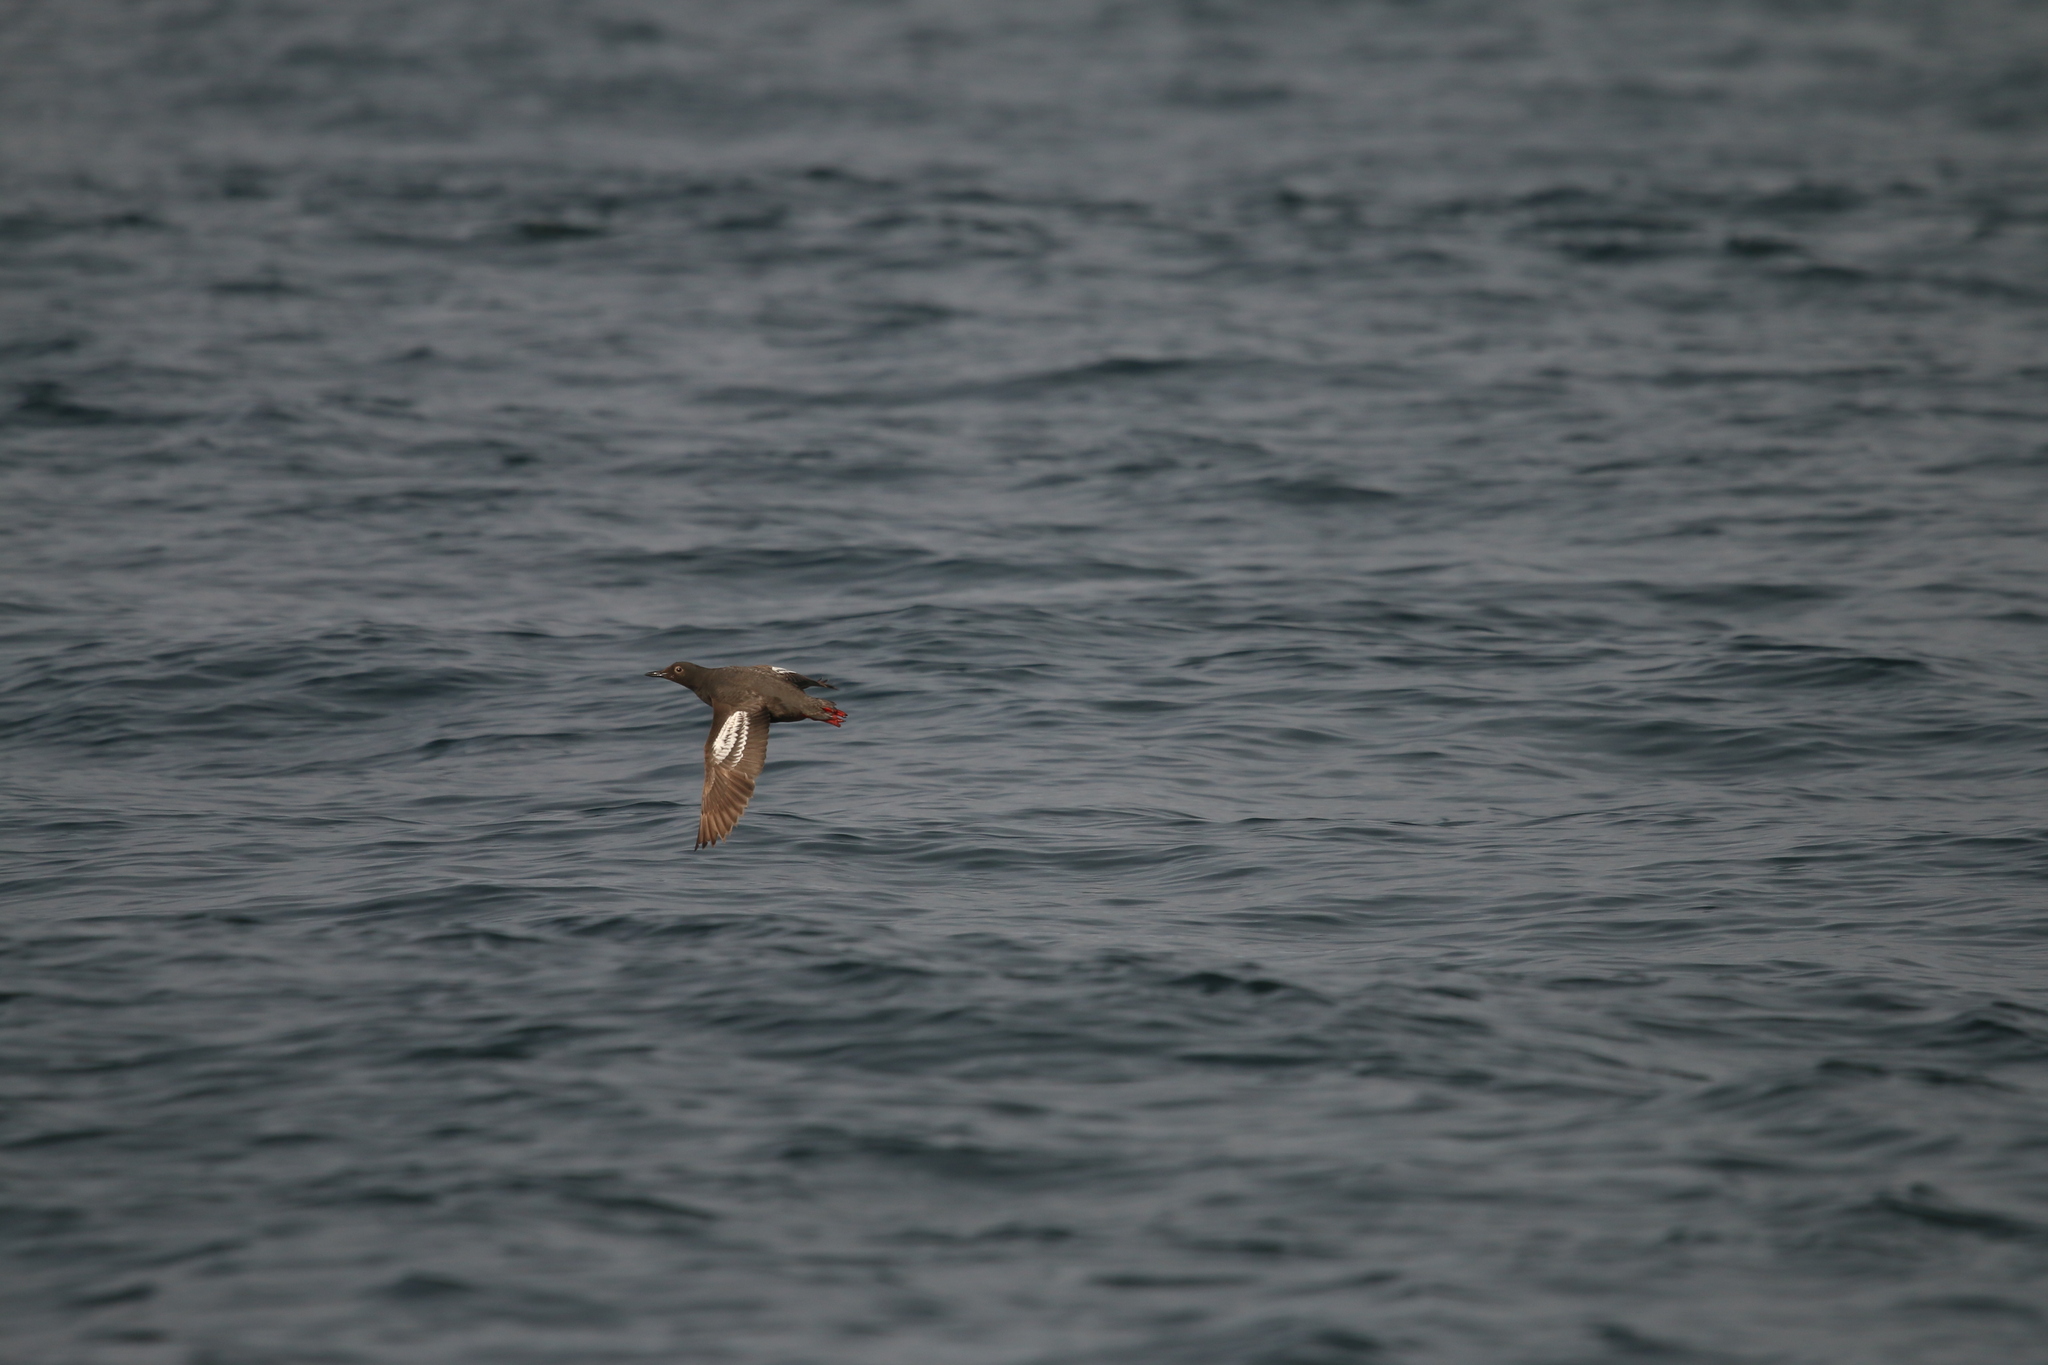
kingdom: Animalia
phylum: Chordata
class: Aves
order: Charadriiformes
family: Alcidae
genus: Cepphus
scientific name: Cepphus columba
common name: Pigeon guillemot
